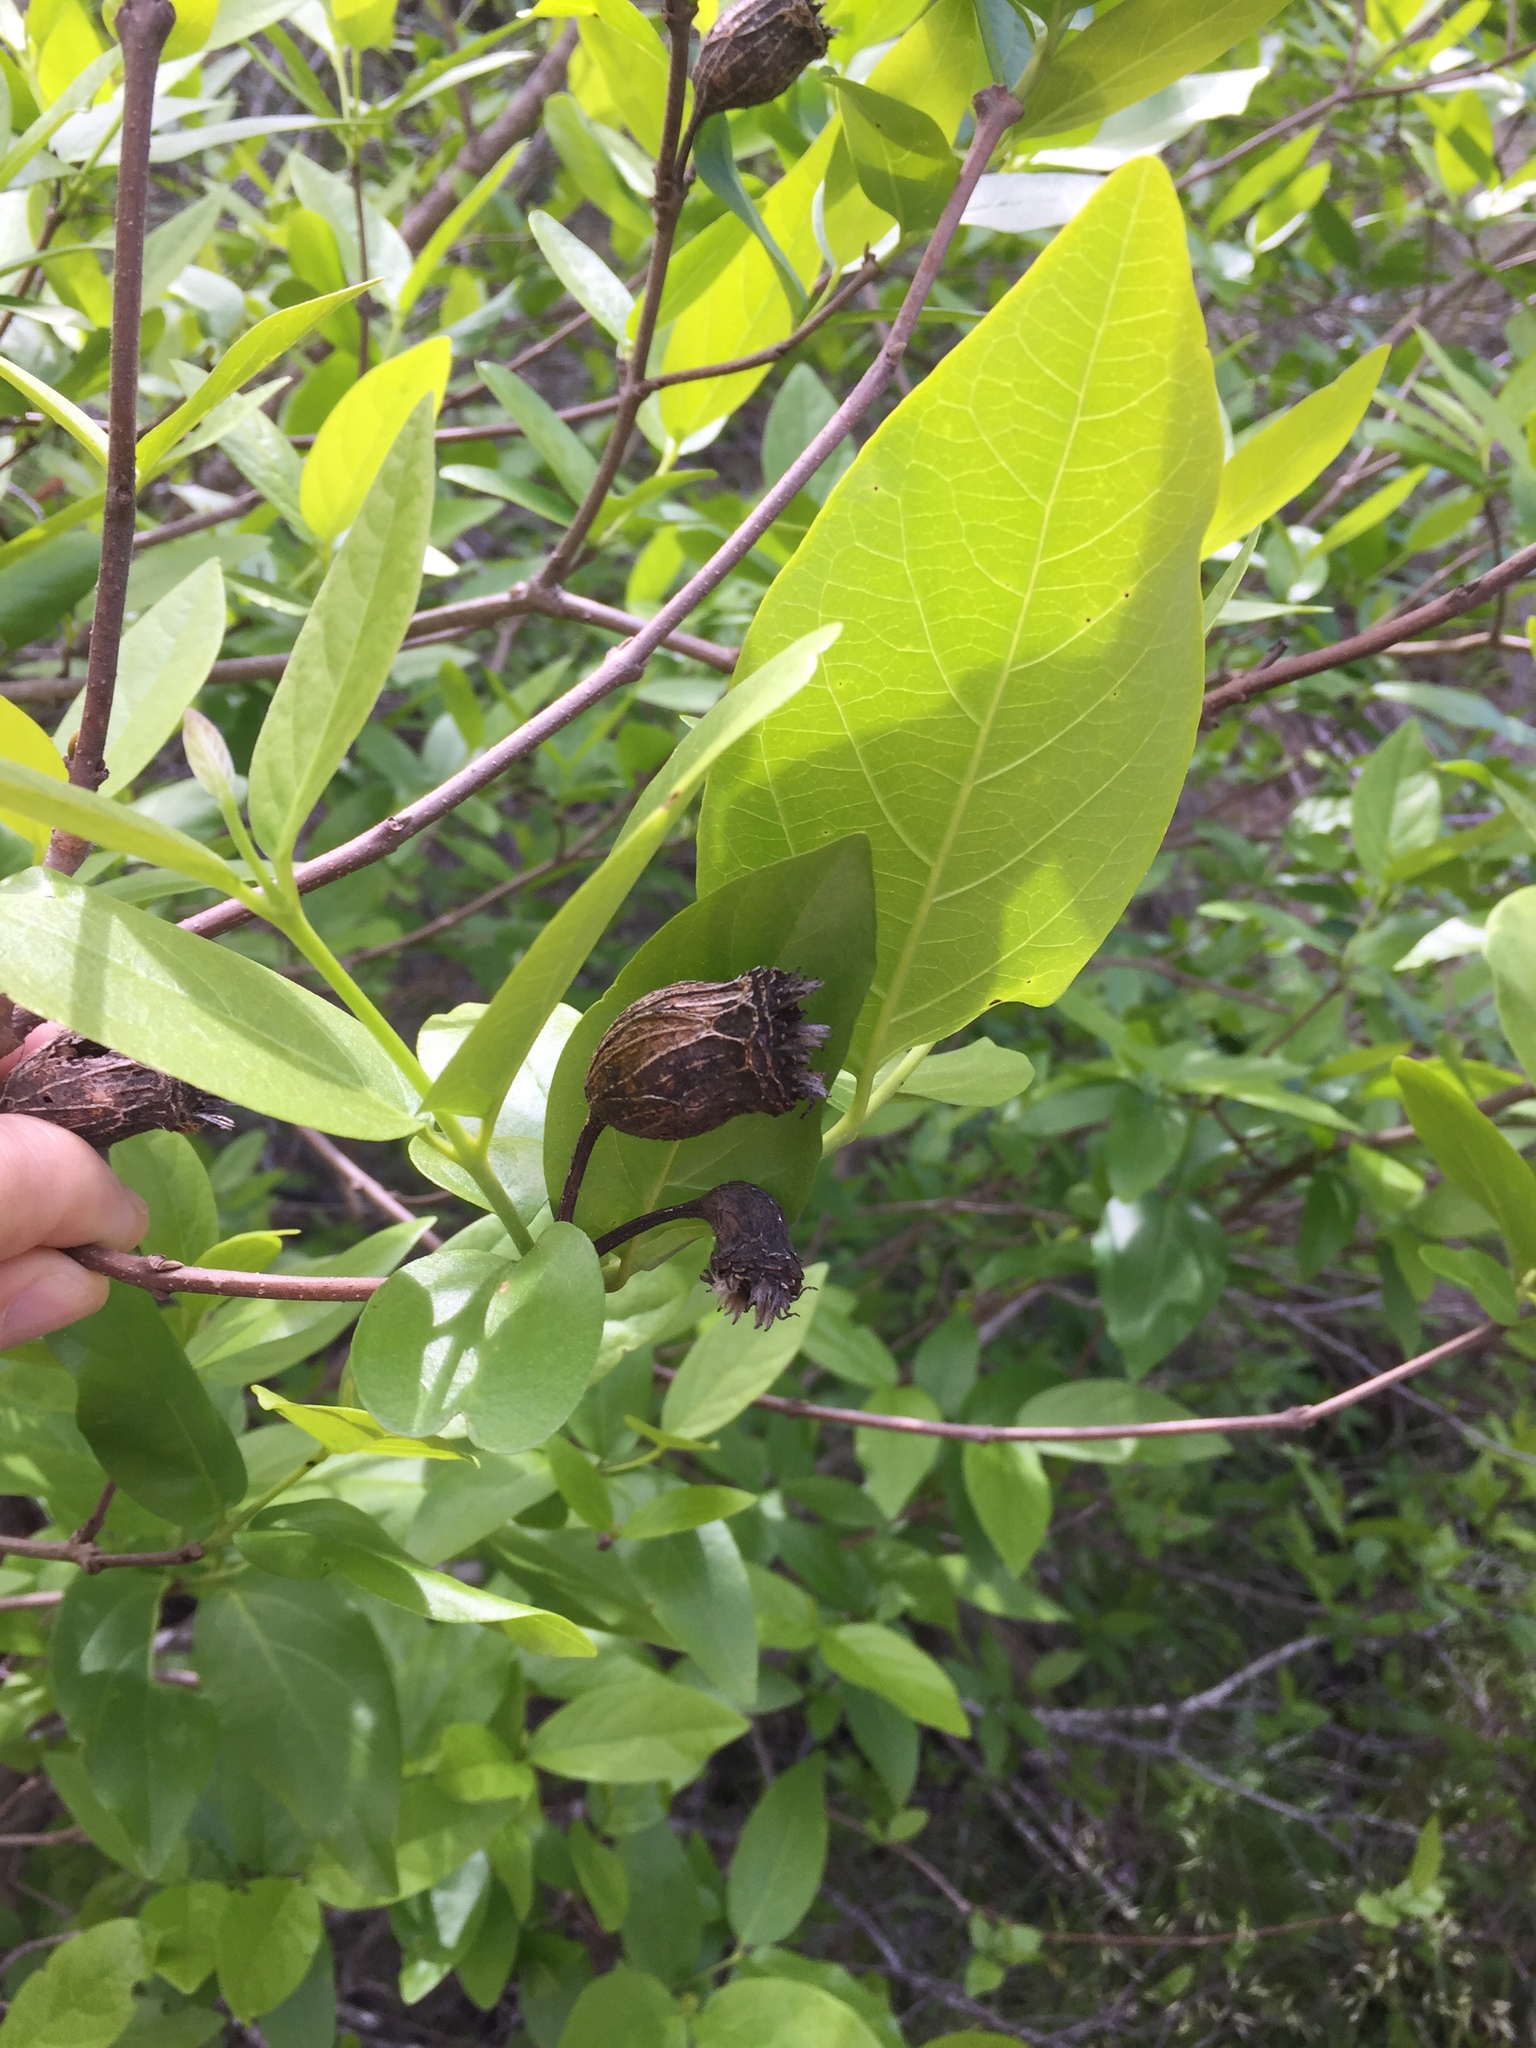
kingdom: Plantae
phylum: Tracheophyta
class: Magnoliopsida
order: Laurales
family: Calycanthaceae
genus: Calycanthus
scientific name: Calycanthus occidentalis
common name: California spicebush
